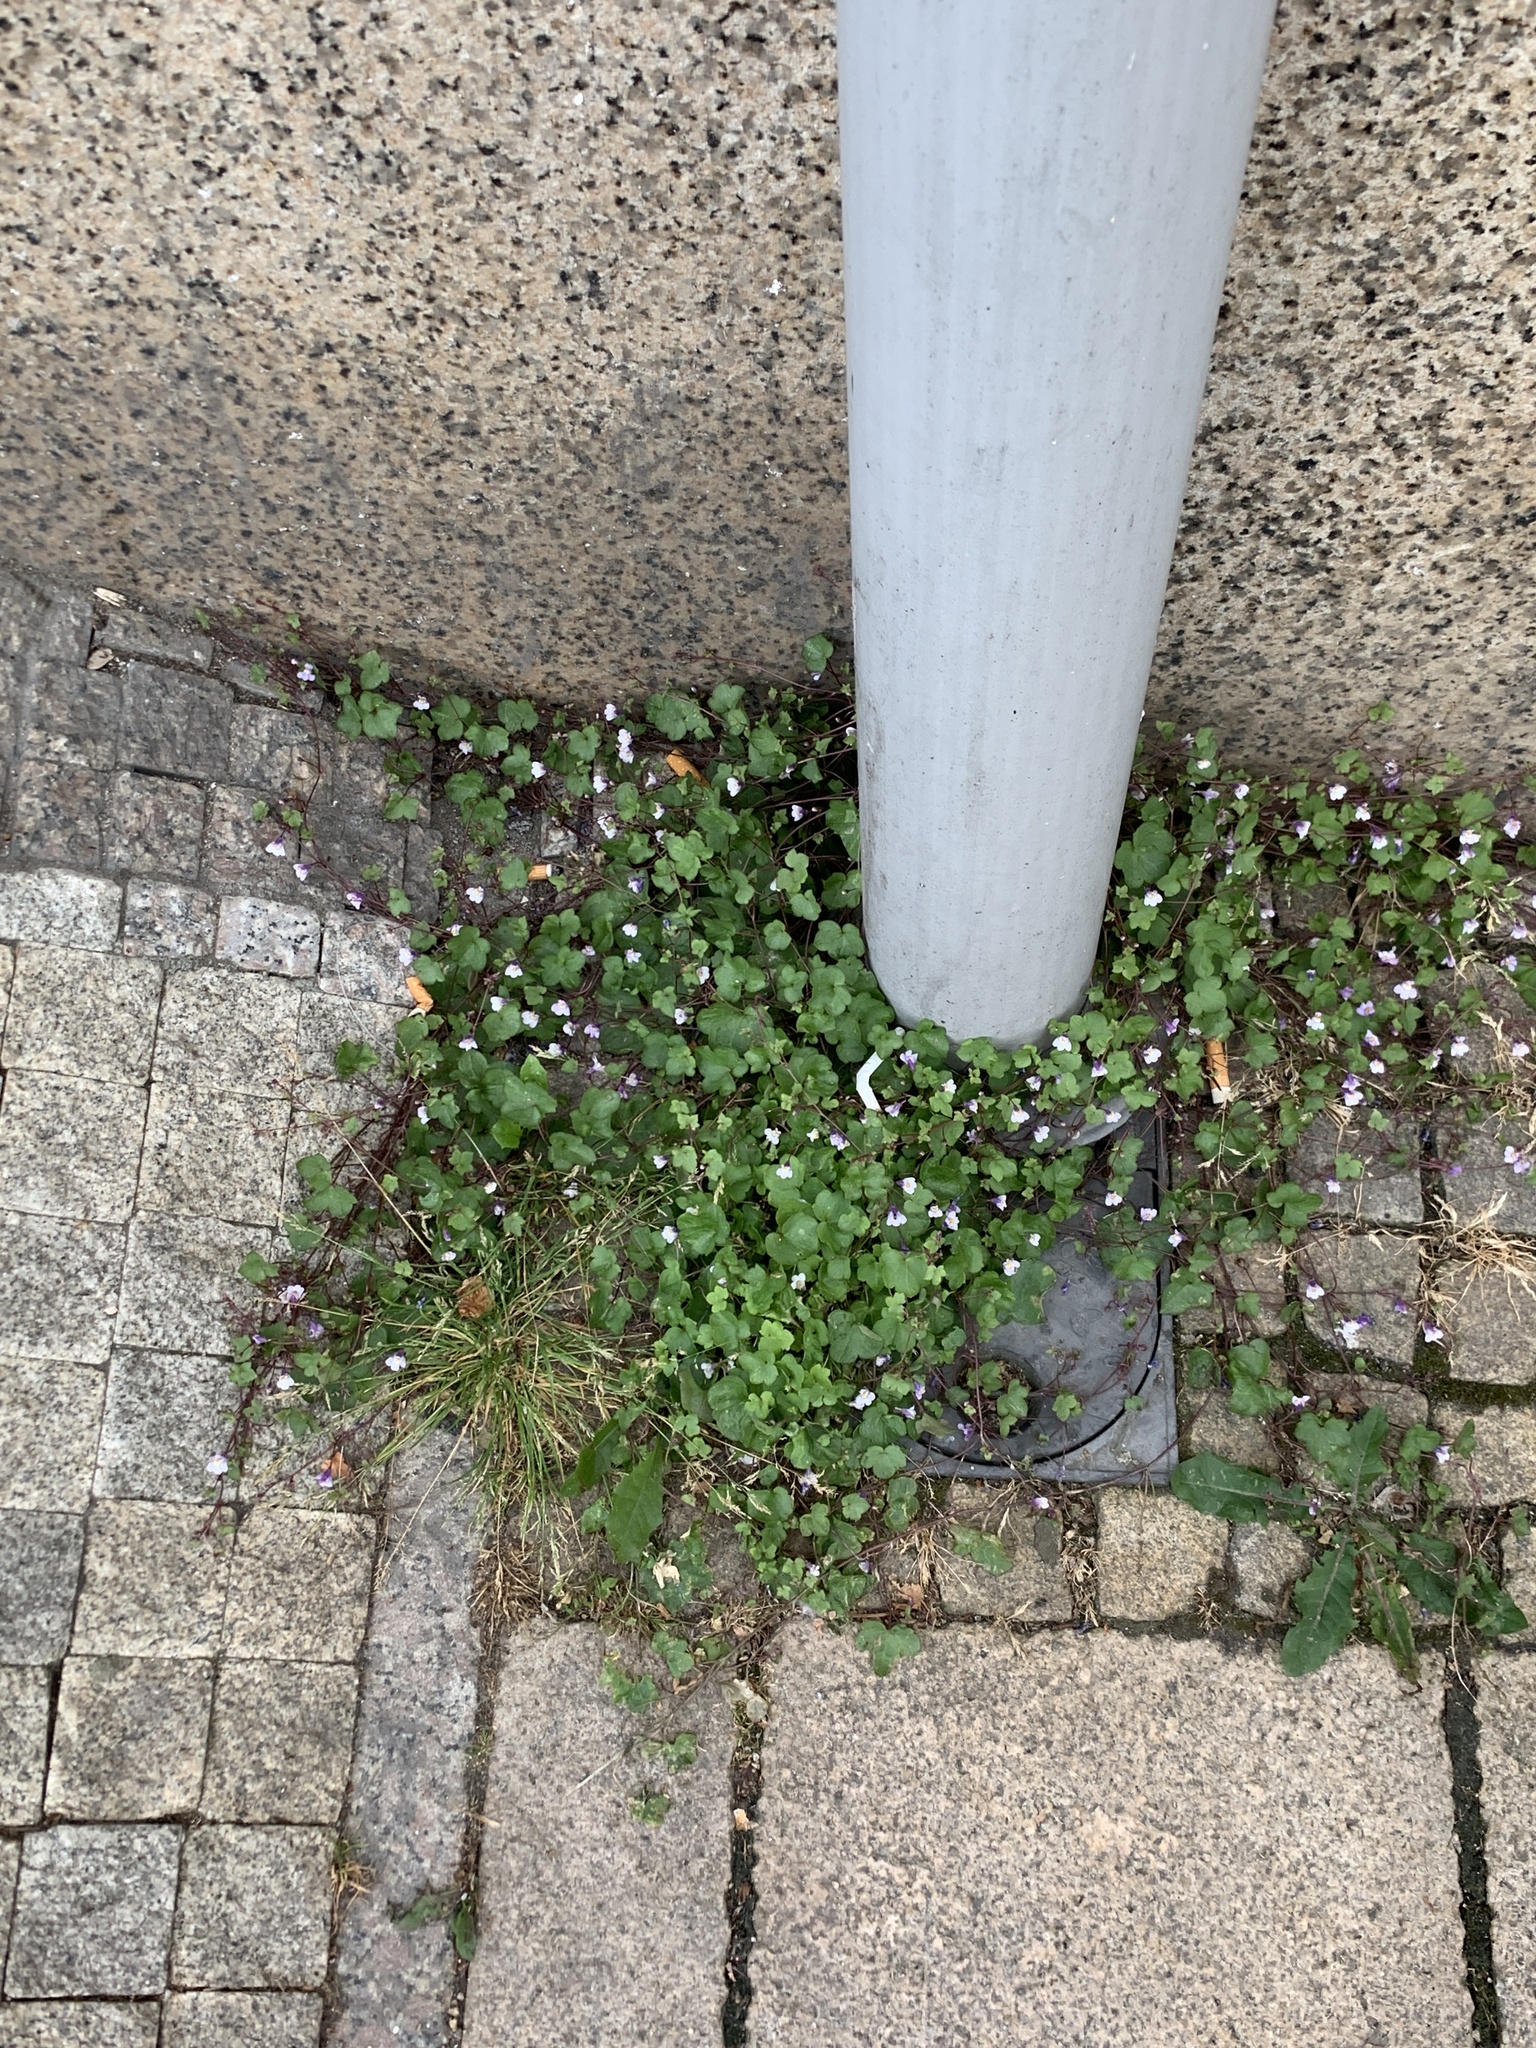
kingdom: Plantae
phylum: Tracheophyta
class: Magnoliopsida
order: Lamiales
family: Plantaginaceae
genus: Cymbalaria
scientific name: Cymbalaria muralis
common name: Ivy-leaved toadflax
